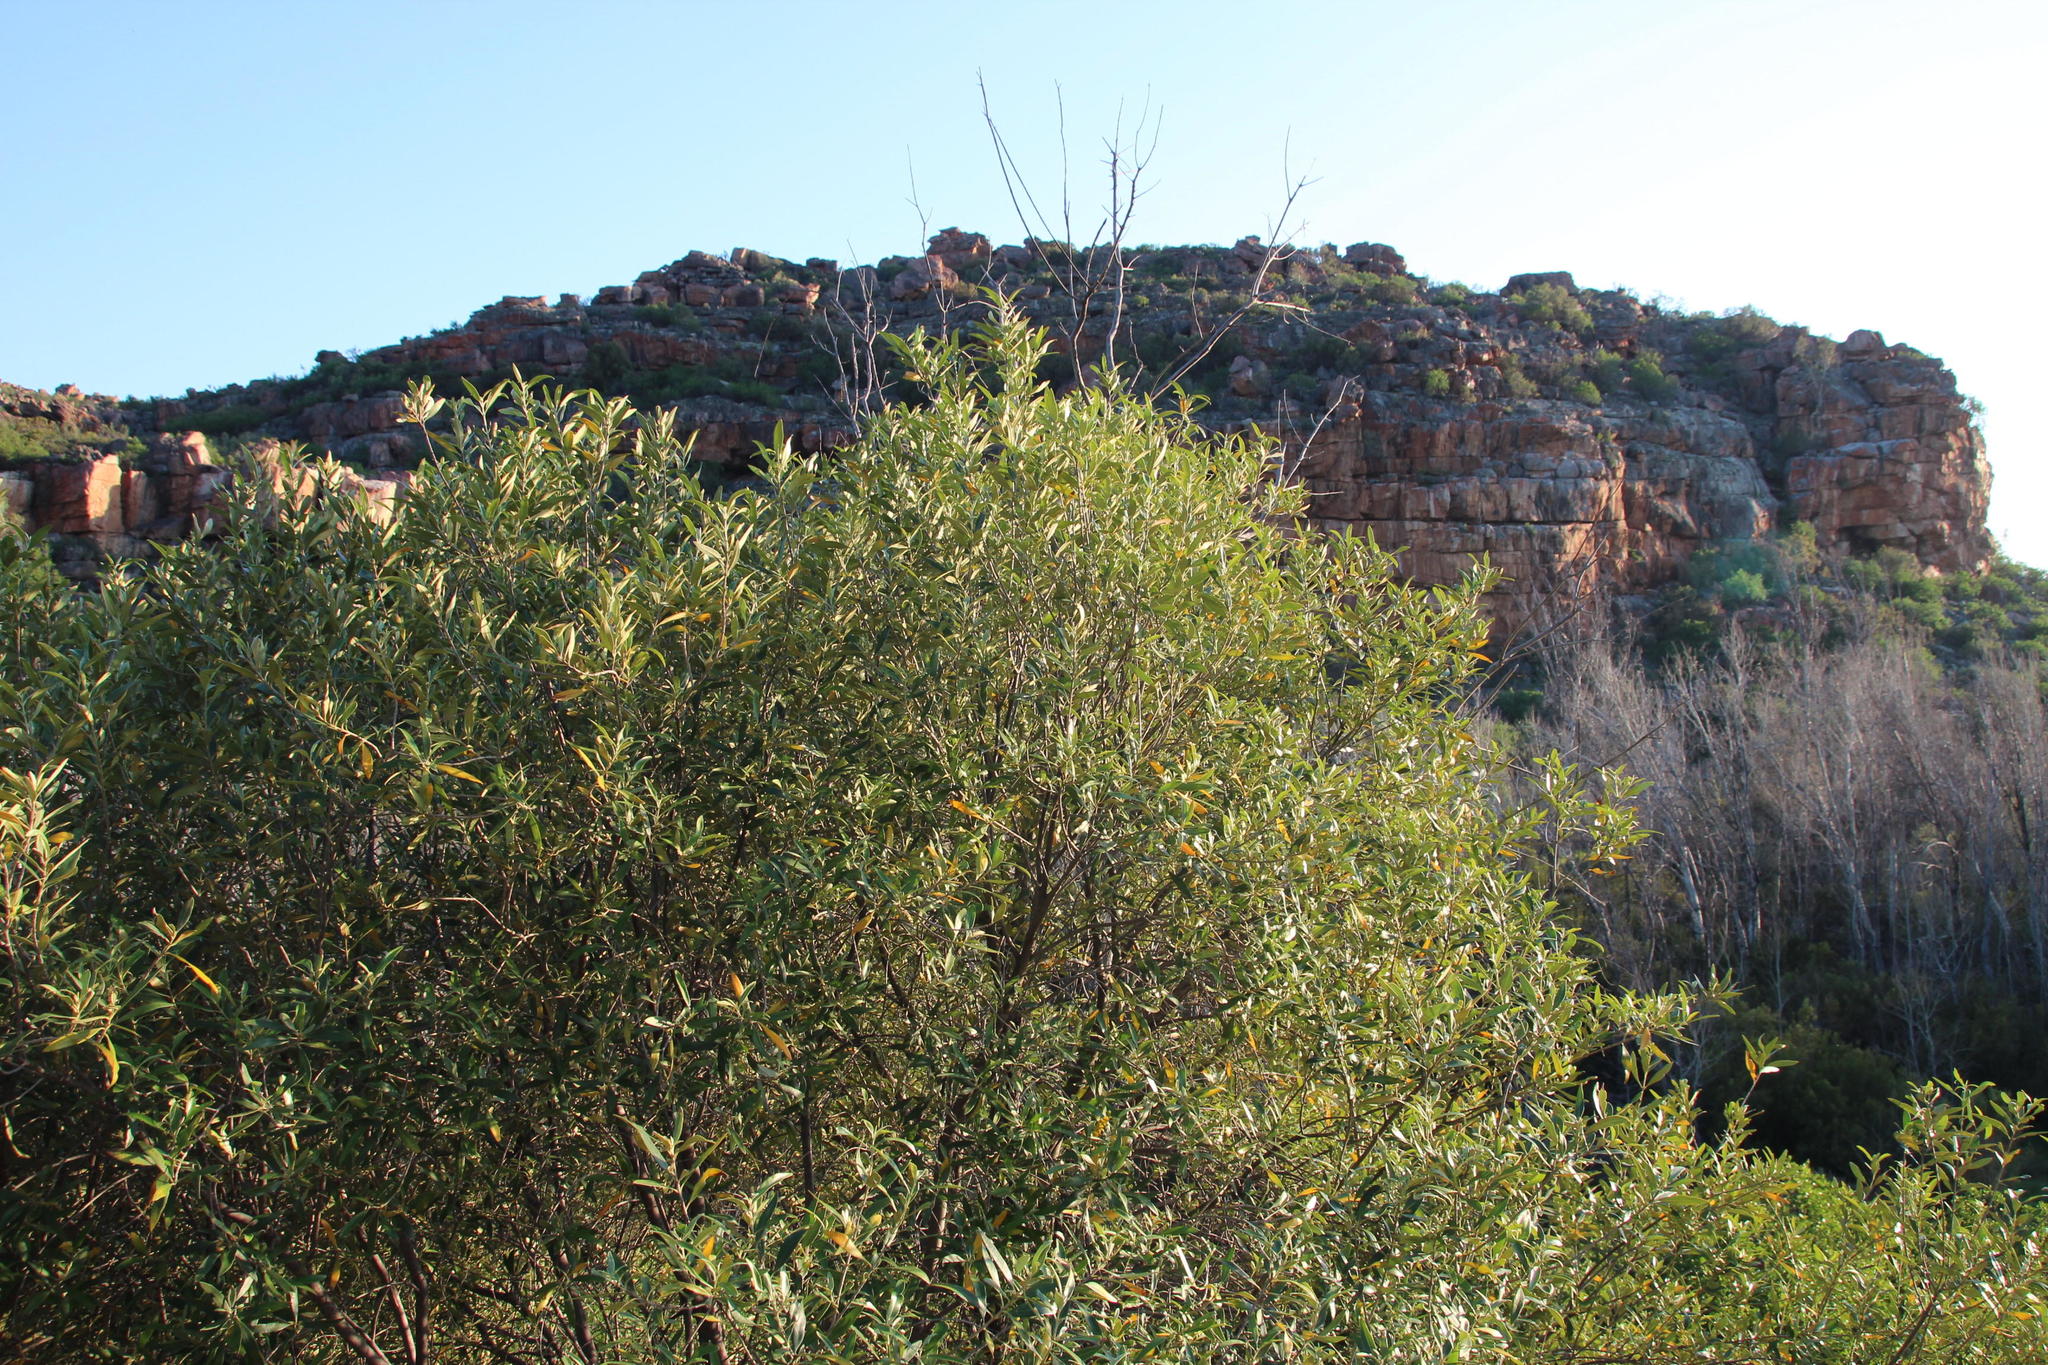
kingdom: Plantae
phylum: Tracheophyta
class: Magnoliopsida
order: Lamiales
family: Oleaceae
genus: Olea
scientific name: Olea europaea
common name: Olive
